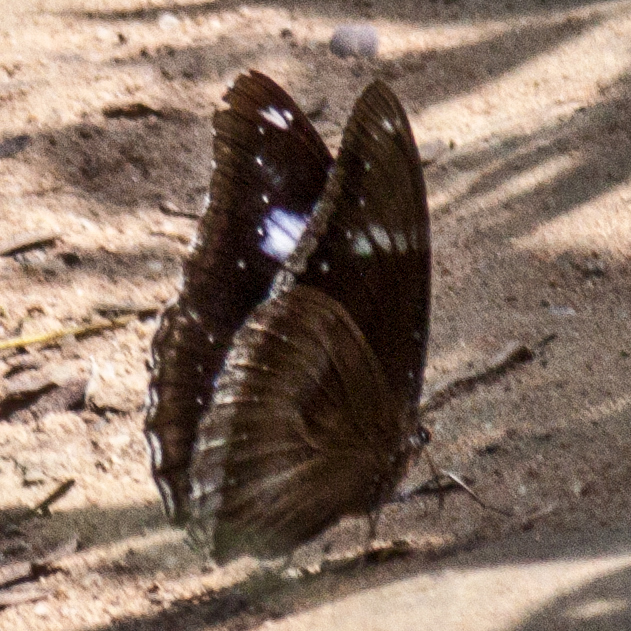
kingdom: Animalia
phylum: Arthropoda
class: Insecta
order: Lepidoptera
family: Nymphalidae
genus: Hypolimnas
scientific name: Hypolimnas bolina
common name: Great eggfly
